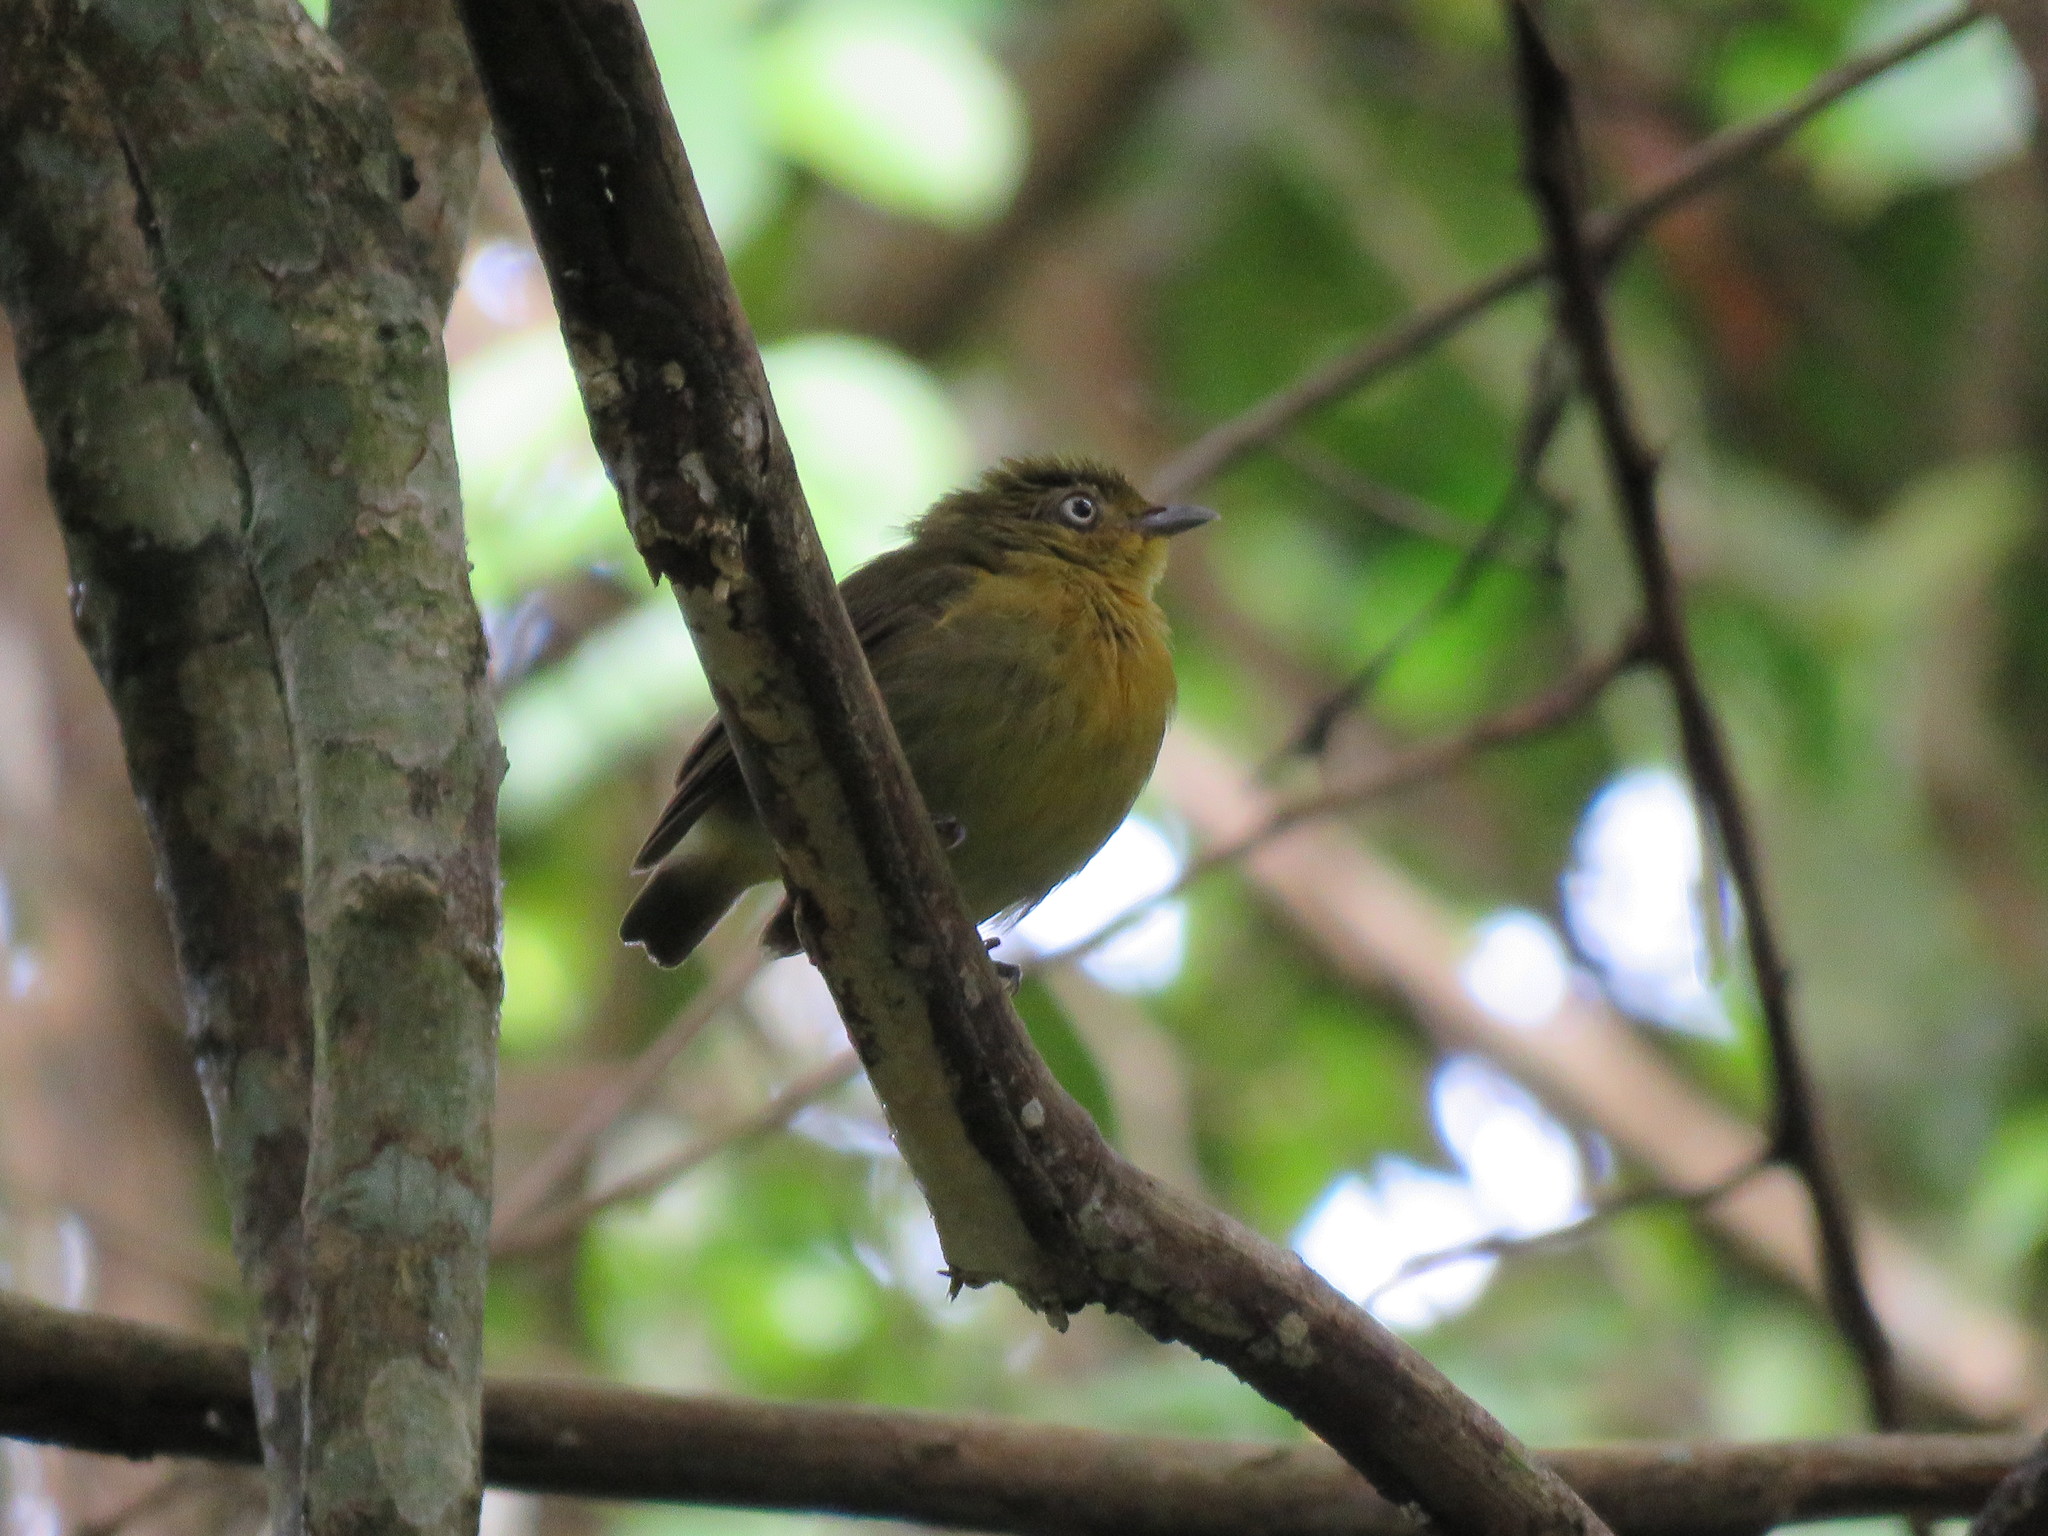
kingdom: Animalia
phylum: Chordata
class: Aves
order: Passeriformes
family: Pipridae
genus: Pipra
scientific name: Pipra fasciicauda
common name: Band-tailed manakin
